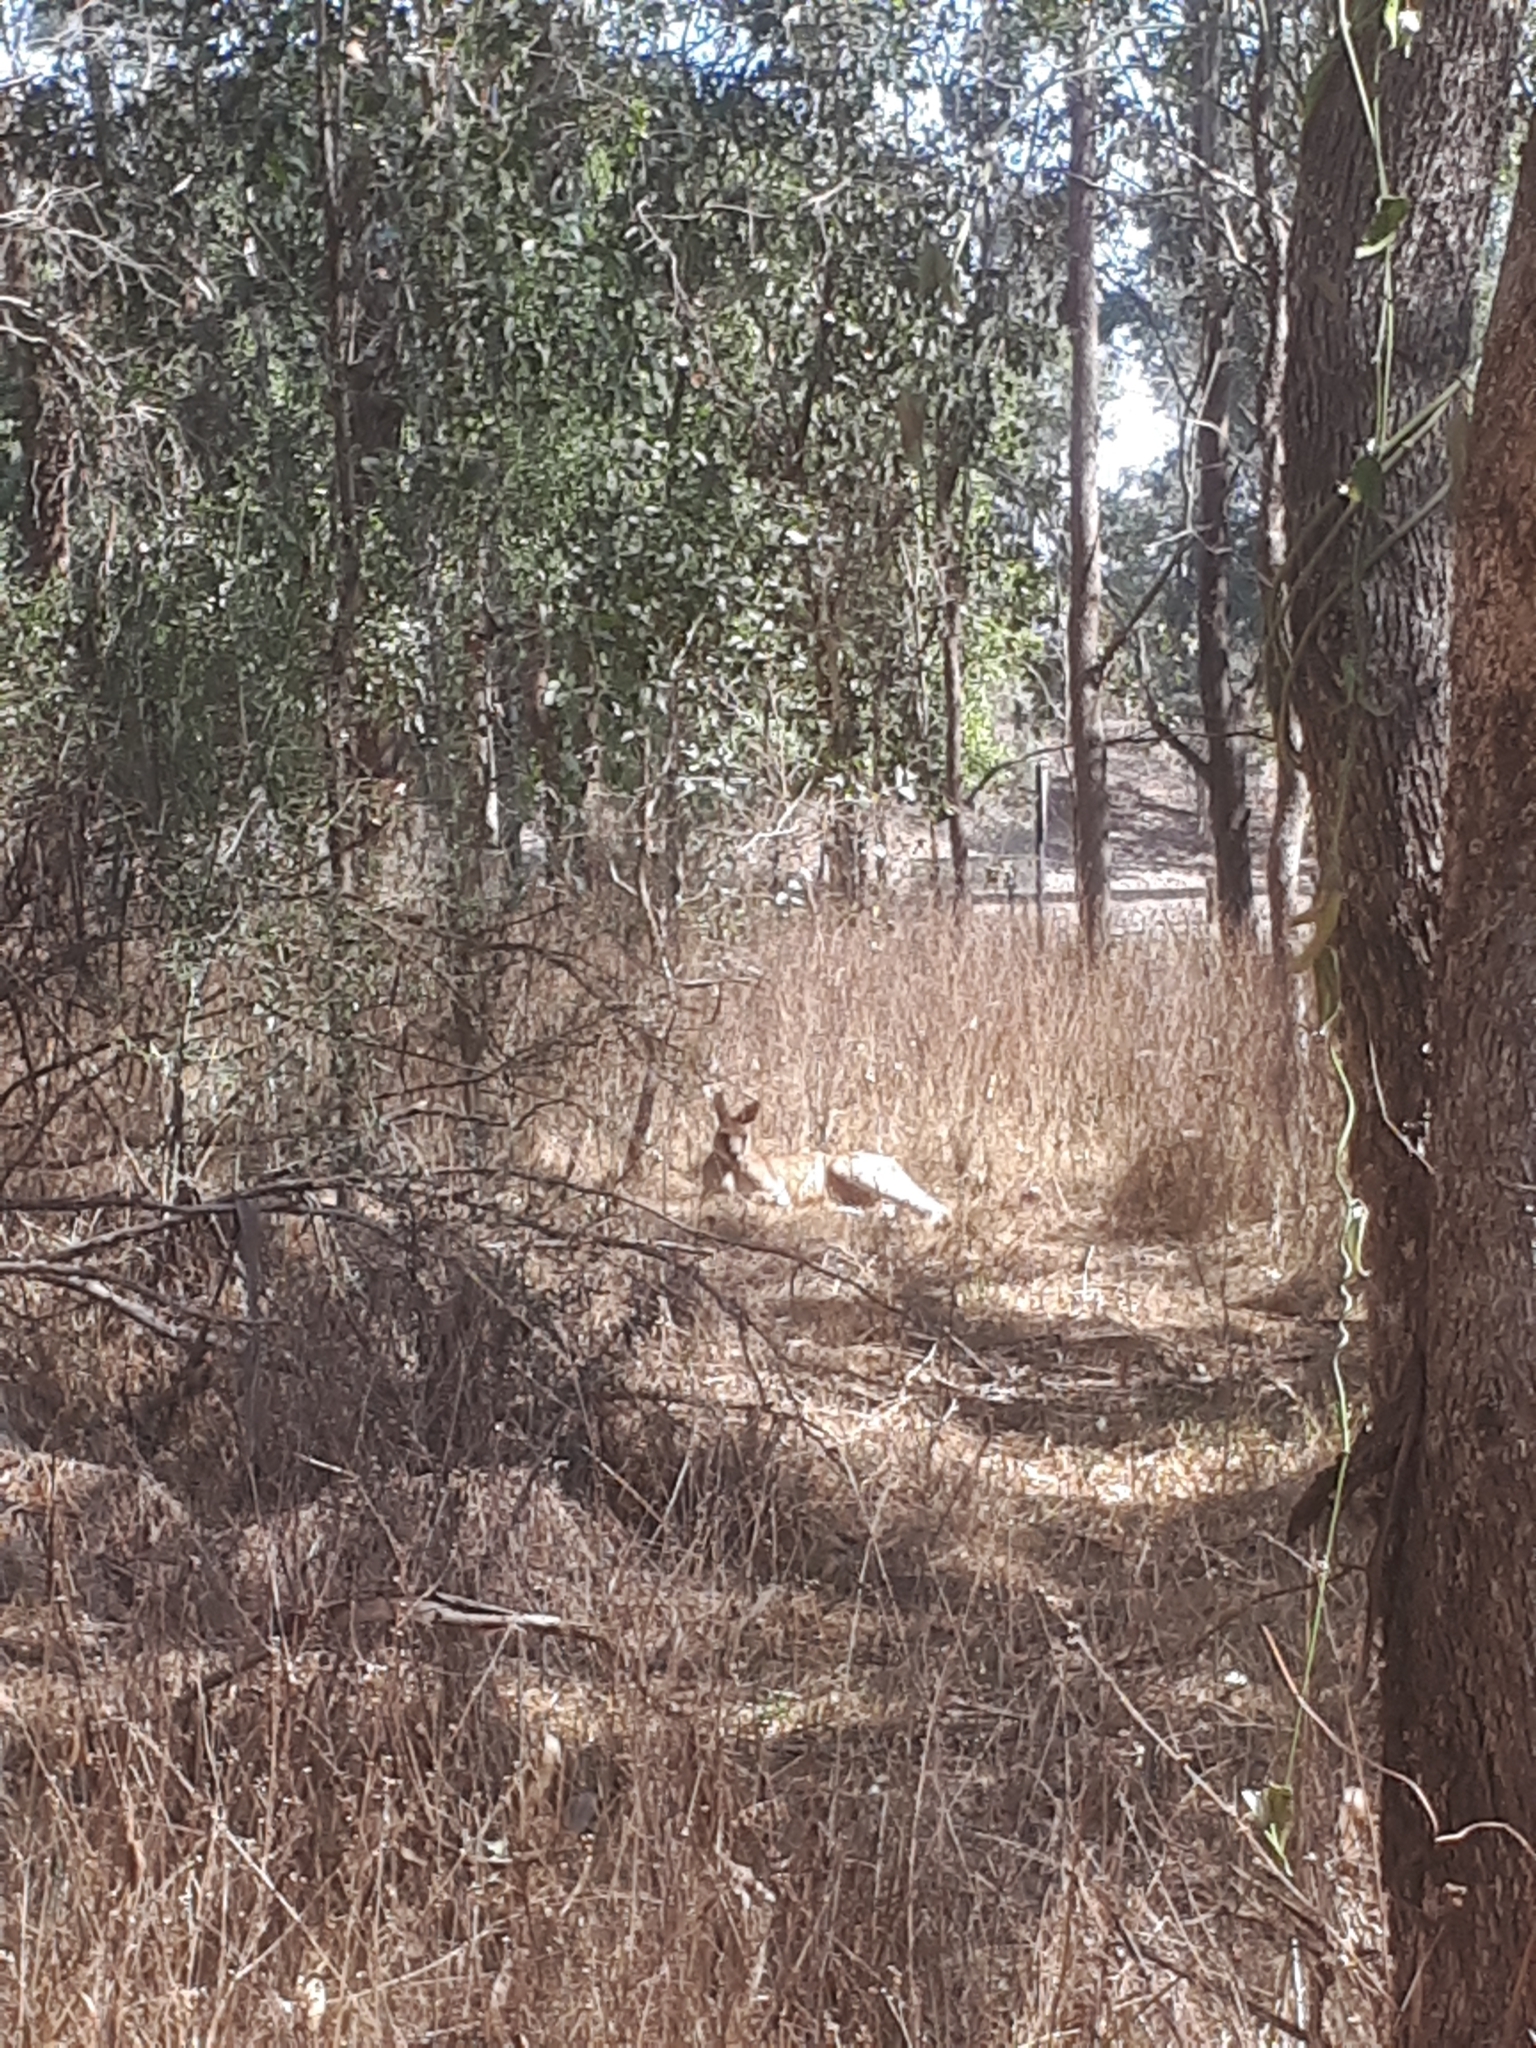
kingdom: Animalia
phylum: Chordata
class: Mammalia
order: Diprotodontia
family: Macropodidae
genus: Macropus
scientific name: Macropus giganteus
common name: Eastern grey kangaroo
